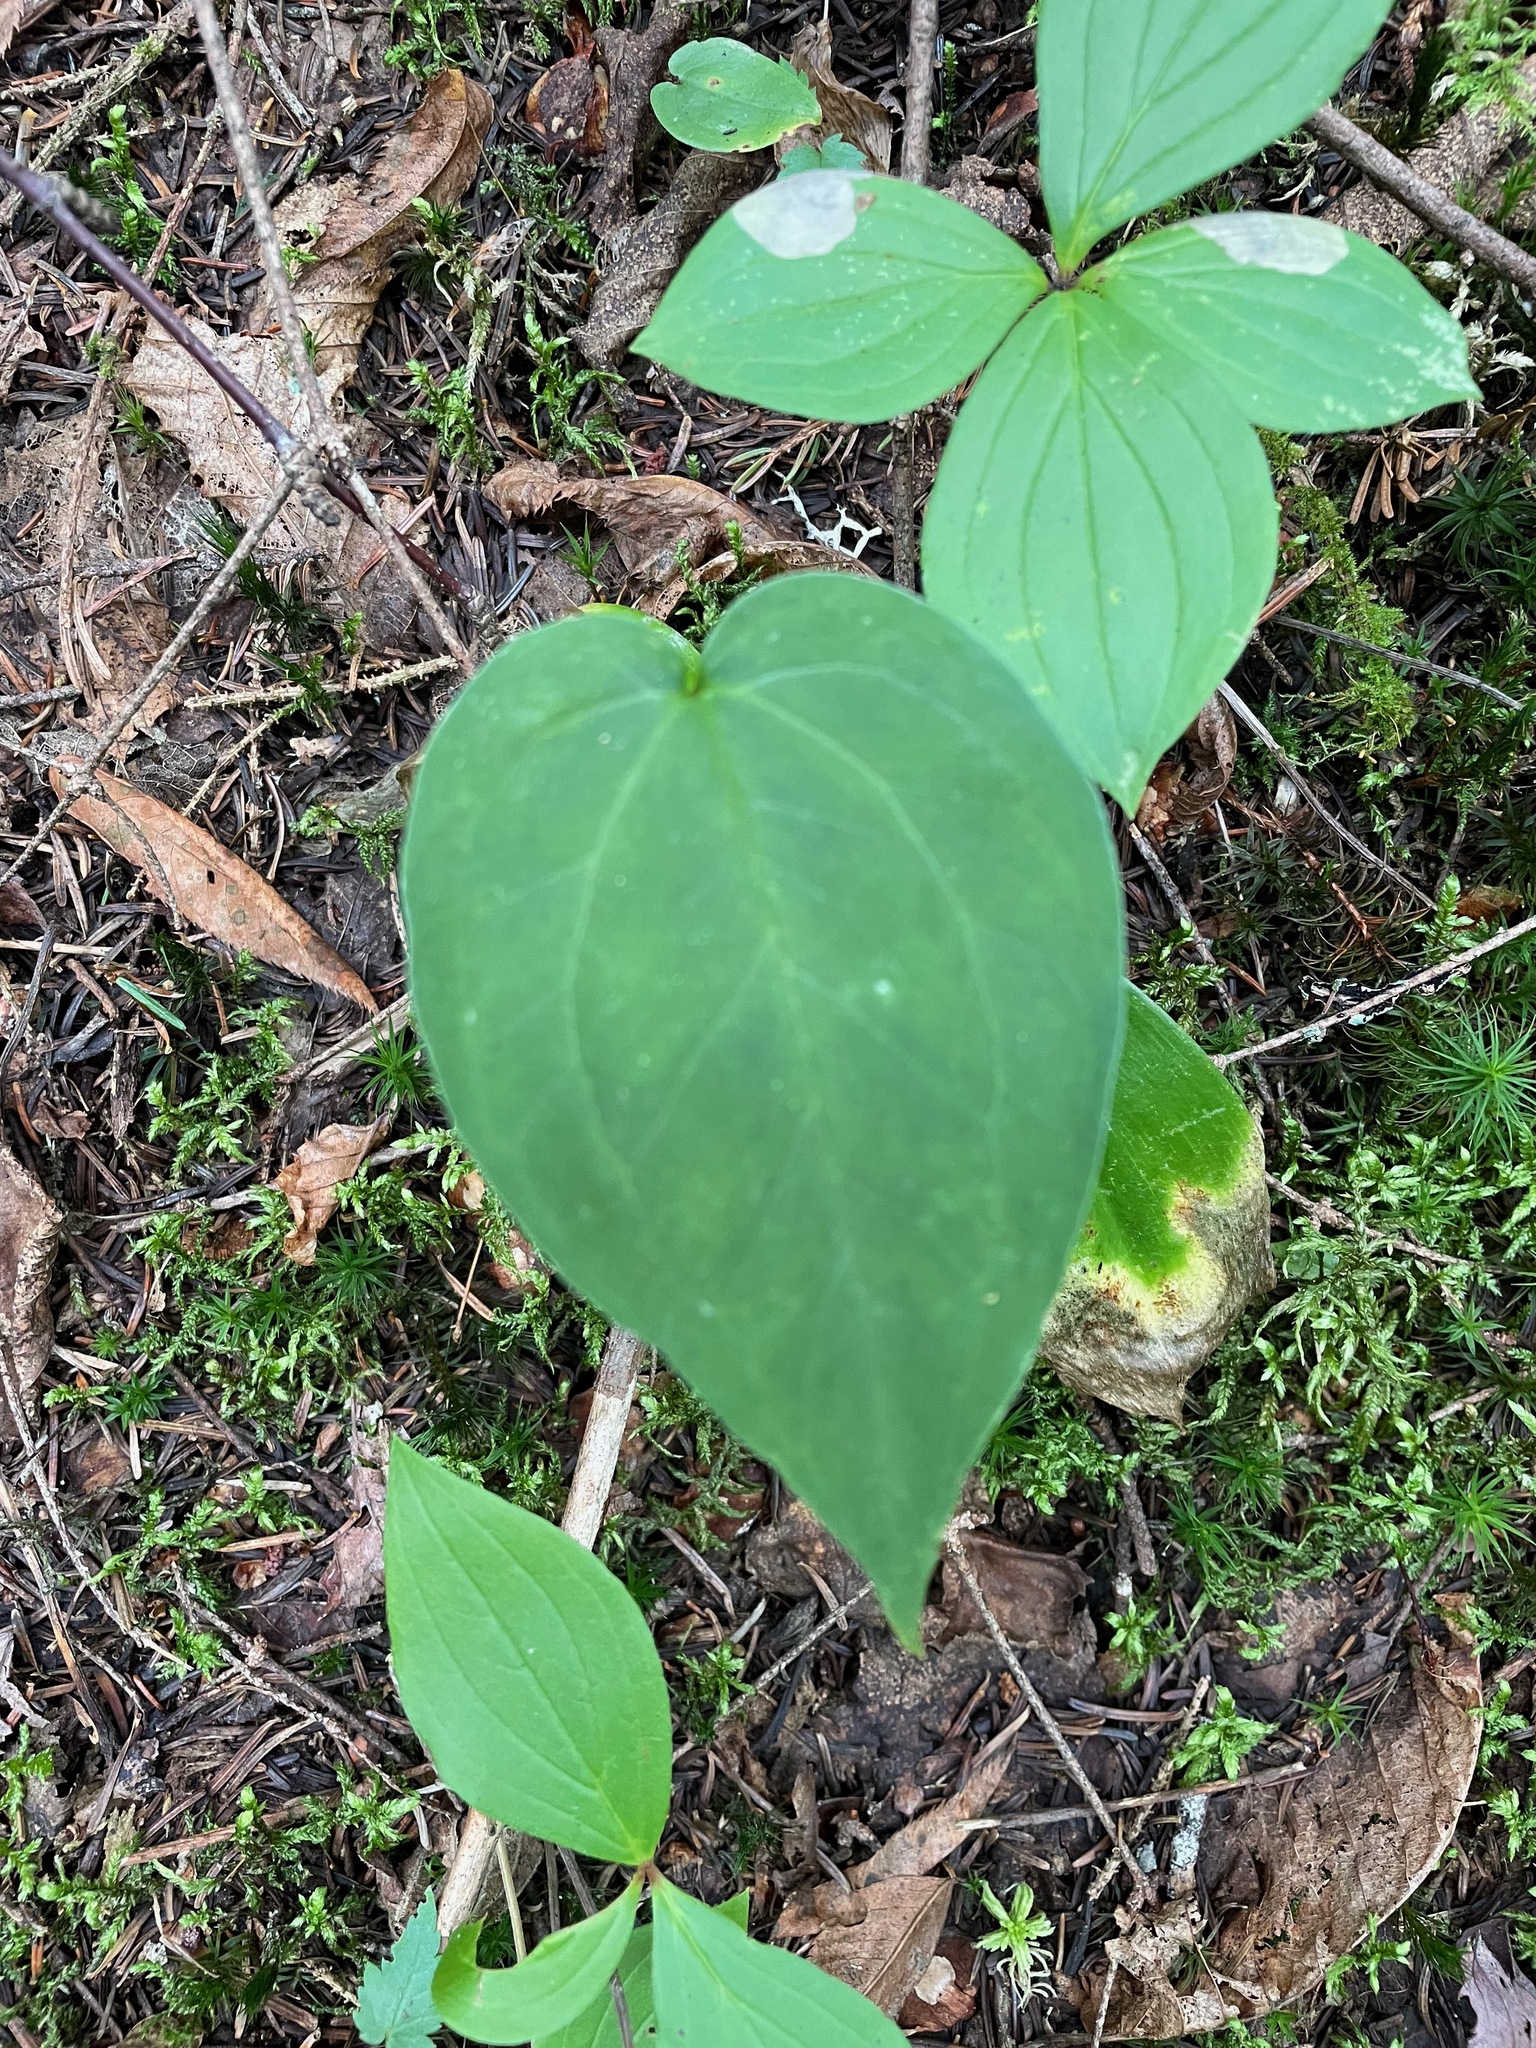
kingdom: Plantae
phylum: Tracheophyta
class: Liliopsida
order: Liliales
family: Melanthiaceae
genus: Trillium
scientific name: Trillium undulatum
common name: Paint trillium
